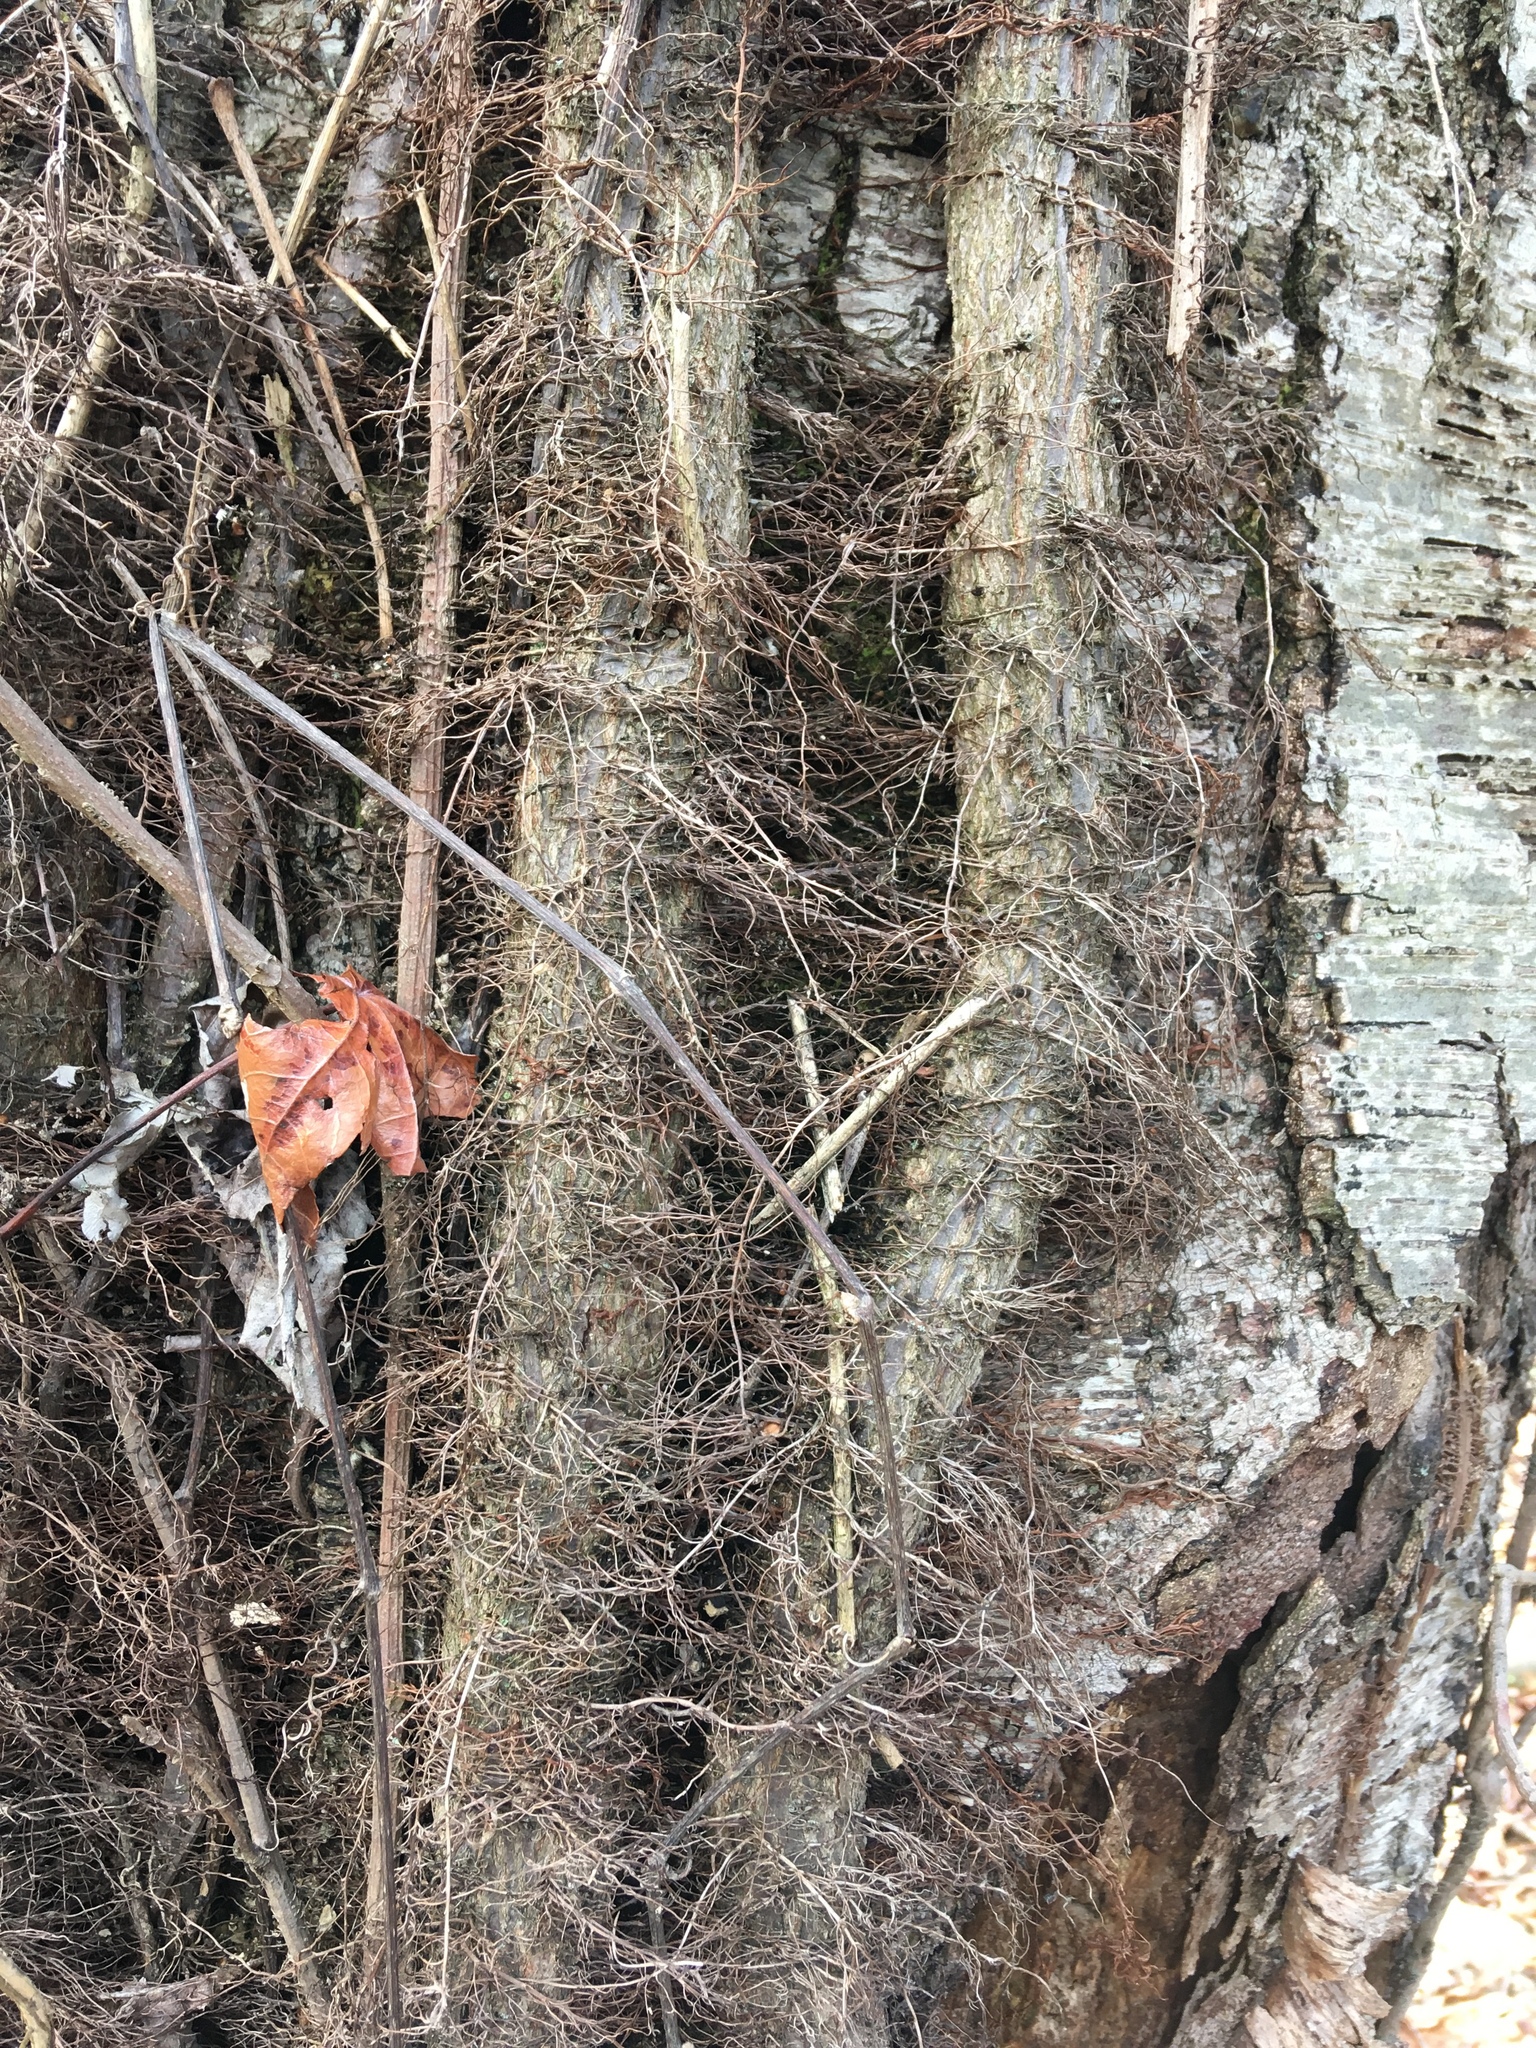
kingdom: Plantae
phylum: Tracheophyta
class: Magnoliopsida
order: Sapindales
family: Anacardiaceae
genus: Toxicodendron
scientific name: Toxicodendron radicans
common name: Poison ivy
